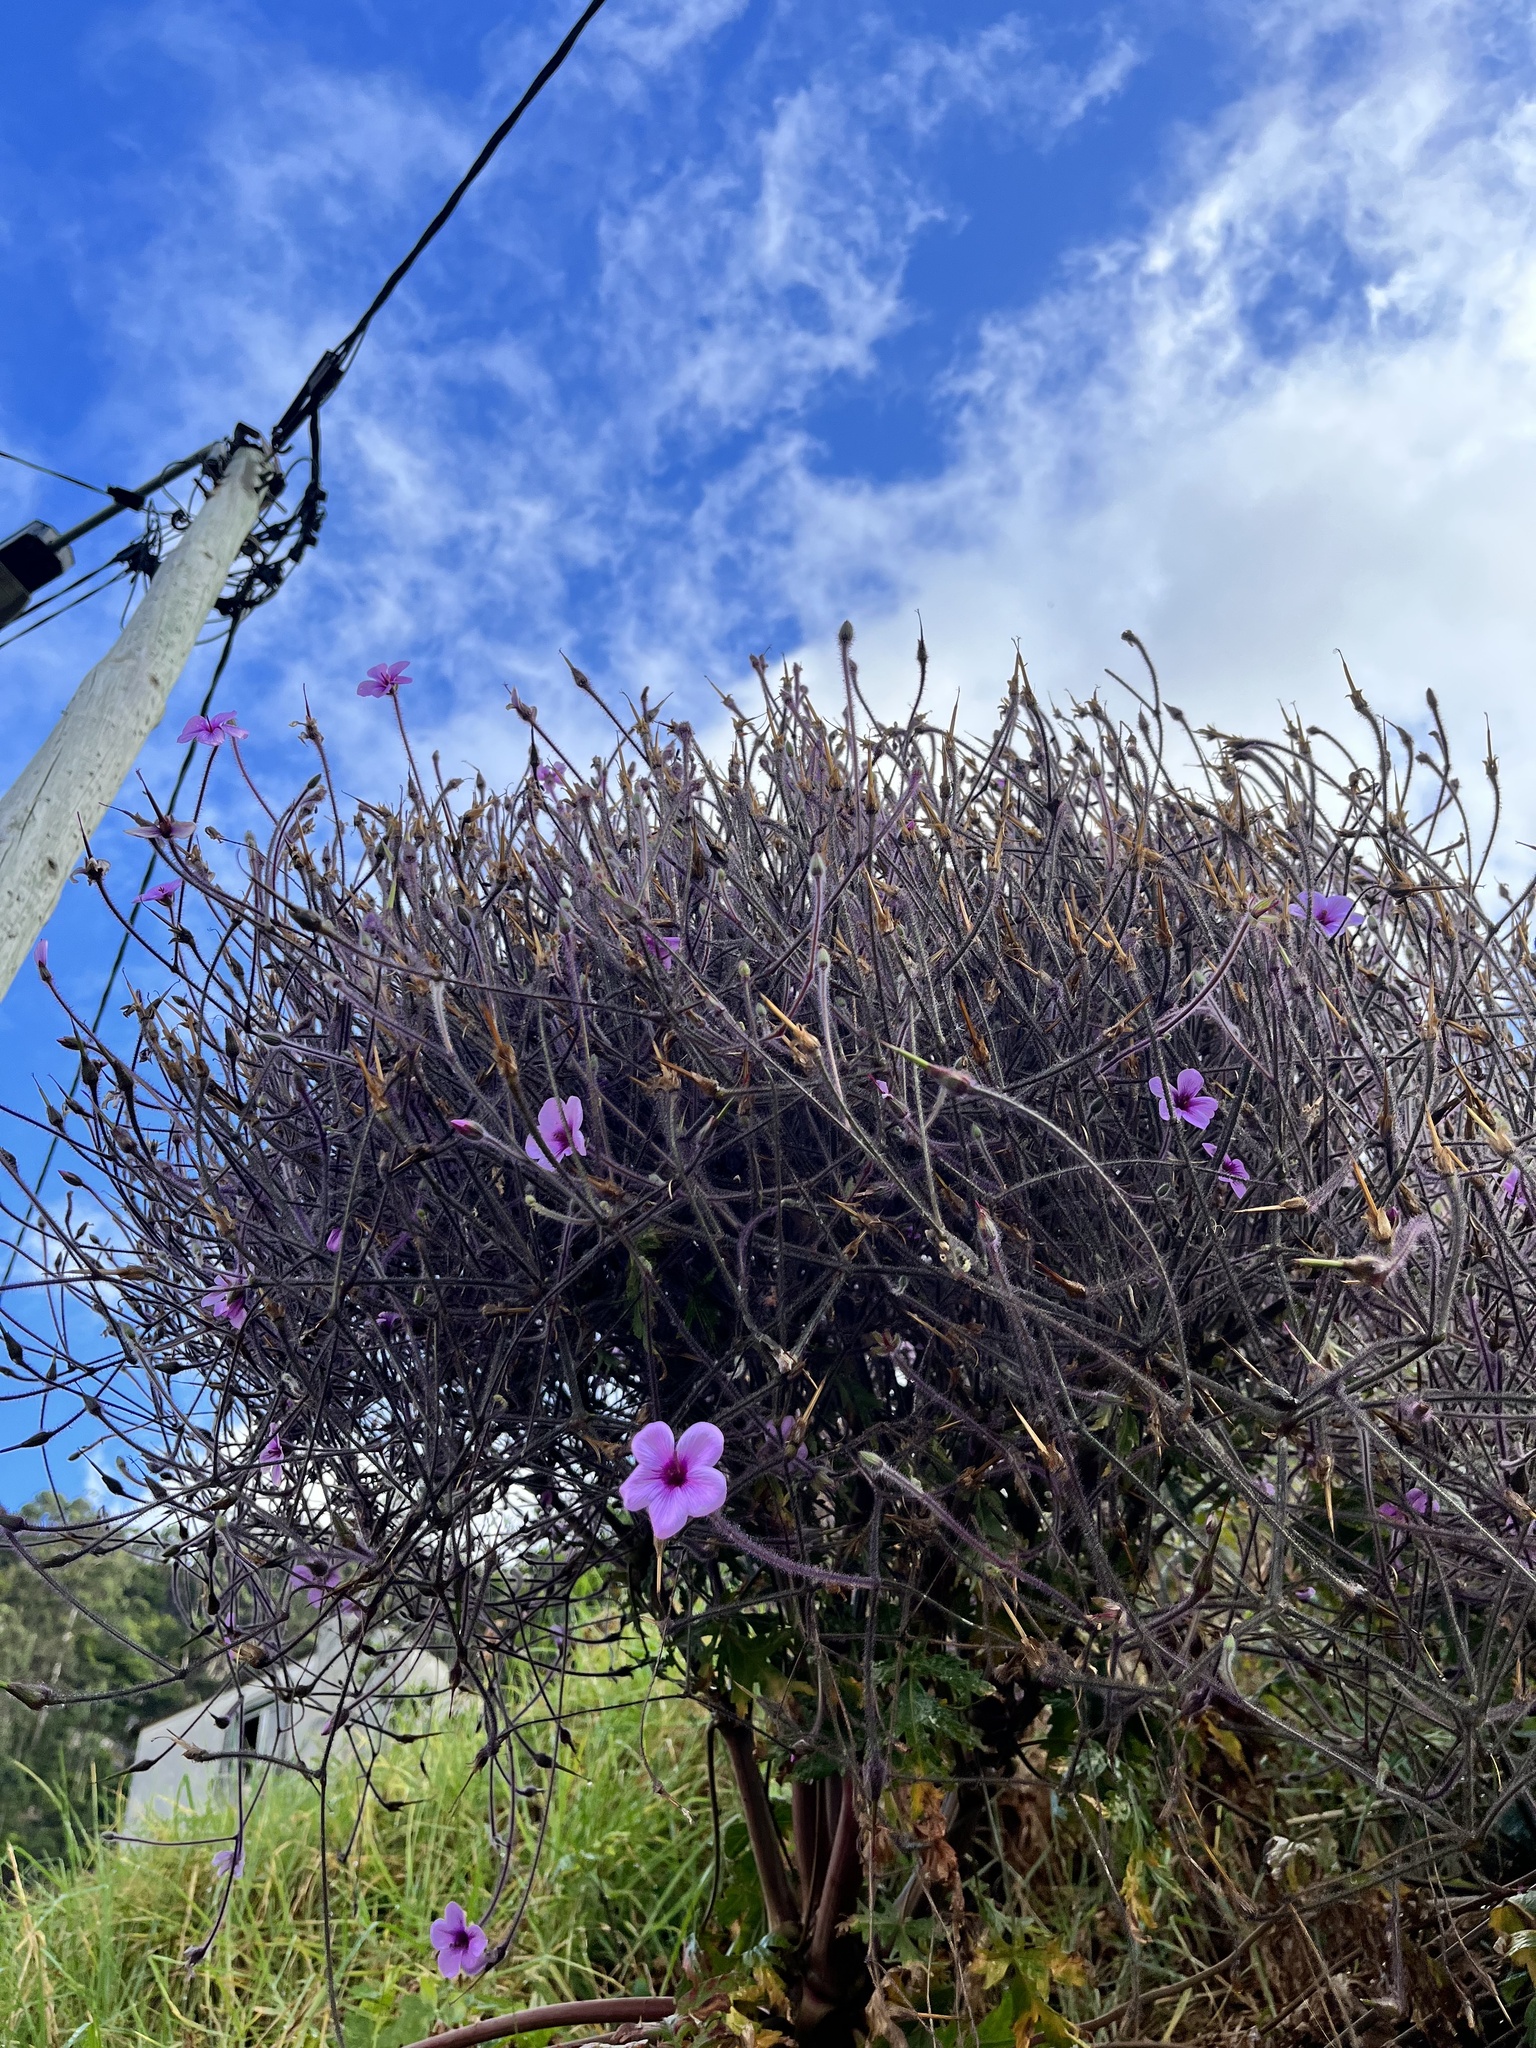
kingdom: Plantae
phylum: Tracheophyta
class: Magnoliopsida
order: Geraniales
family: Geraniaceae
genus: Geranium
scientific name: Geranium maderense
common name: Giant herb-robert
